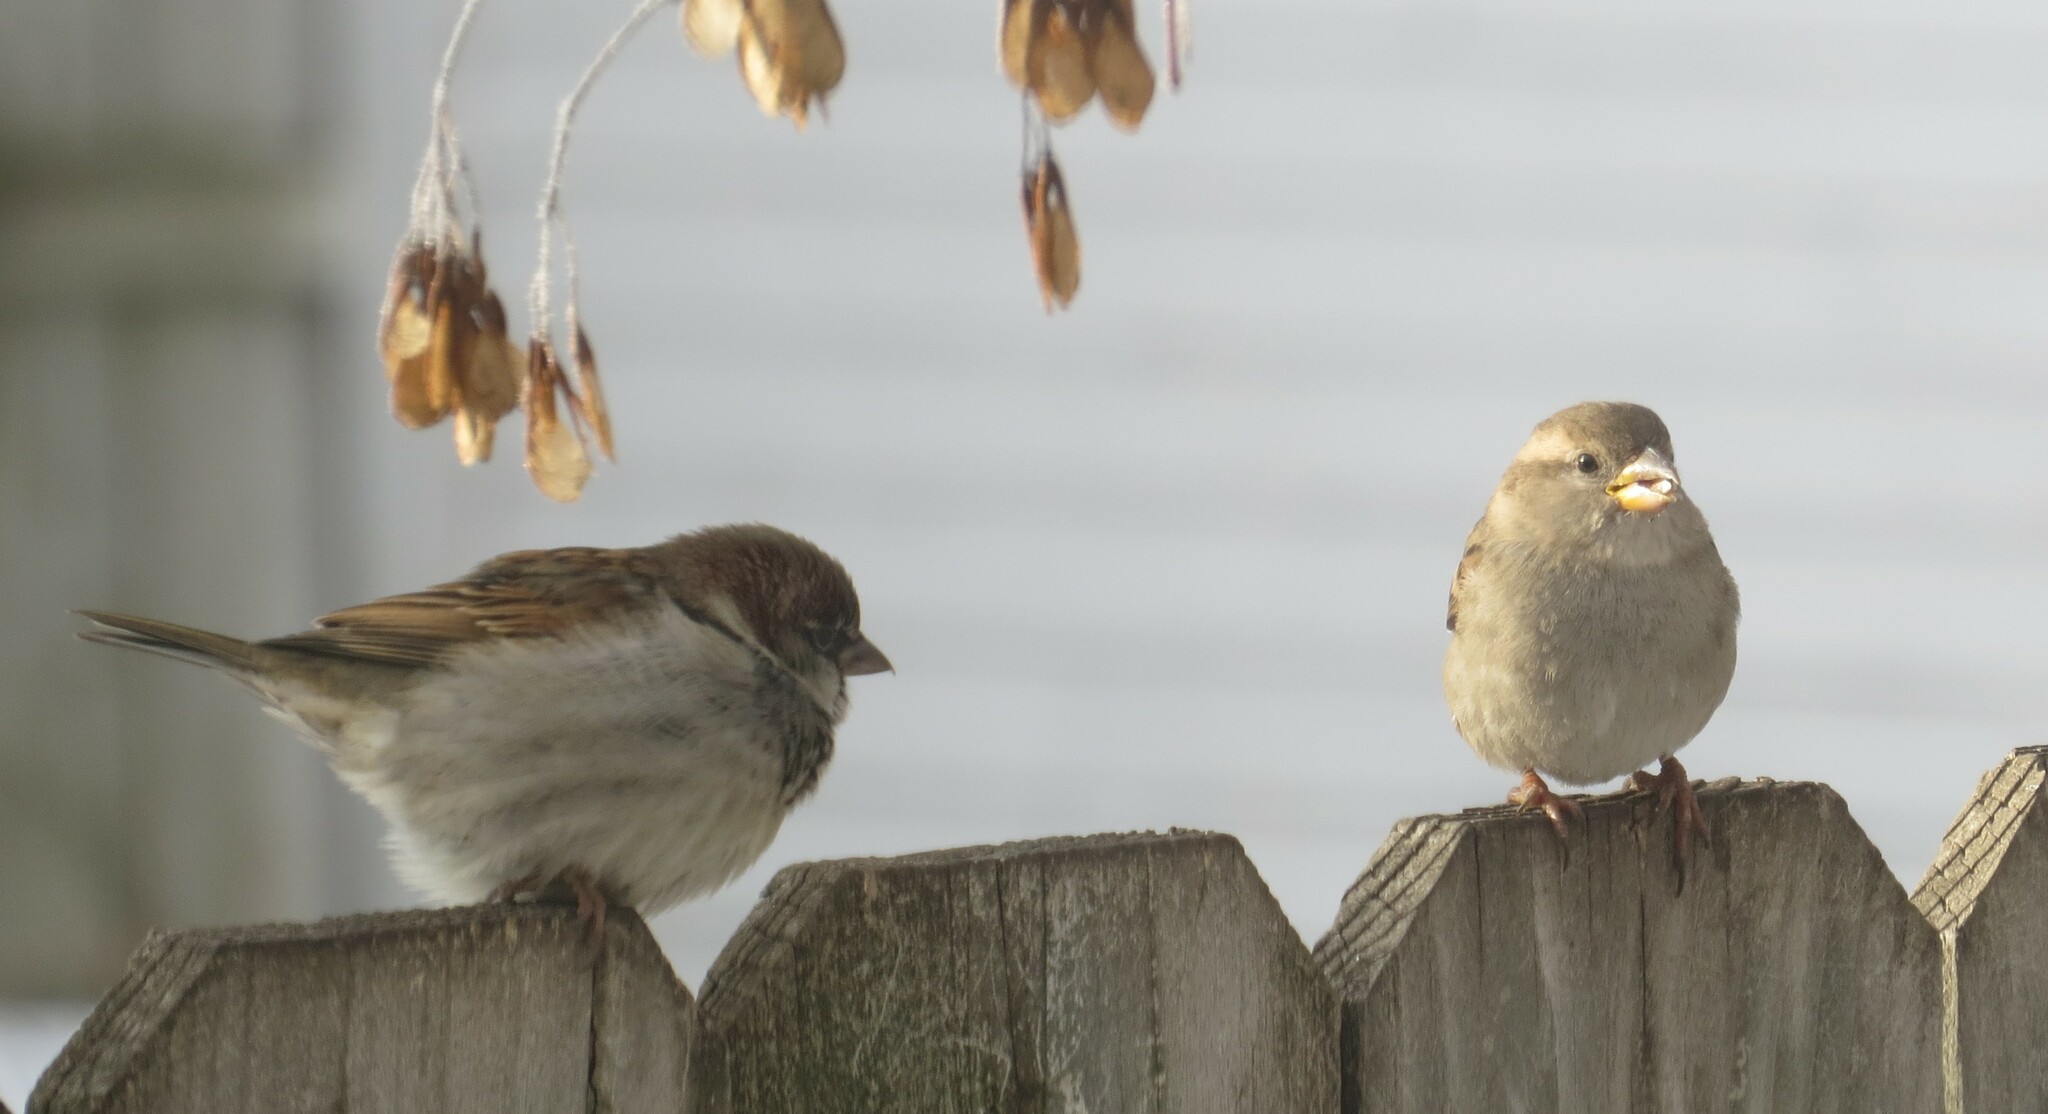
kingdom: Animalia
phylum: Chordata
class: Aves
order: Passeriformes
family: Passeridae
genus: Passer
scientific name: Passer domesticus
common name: House sparrow
